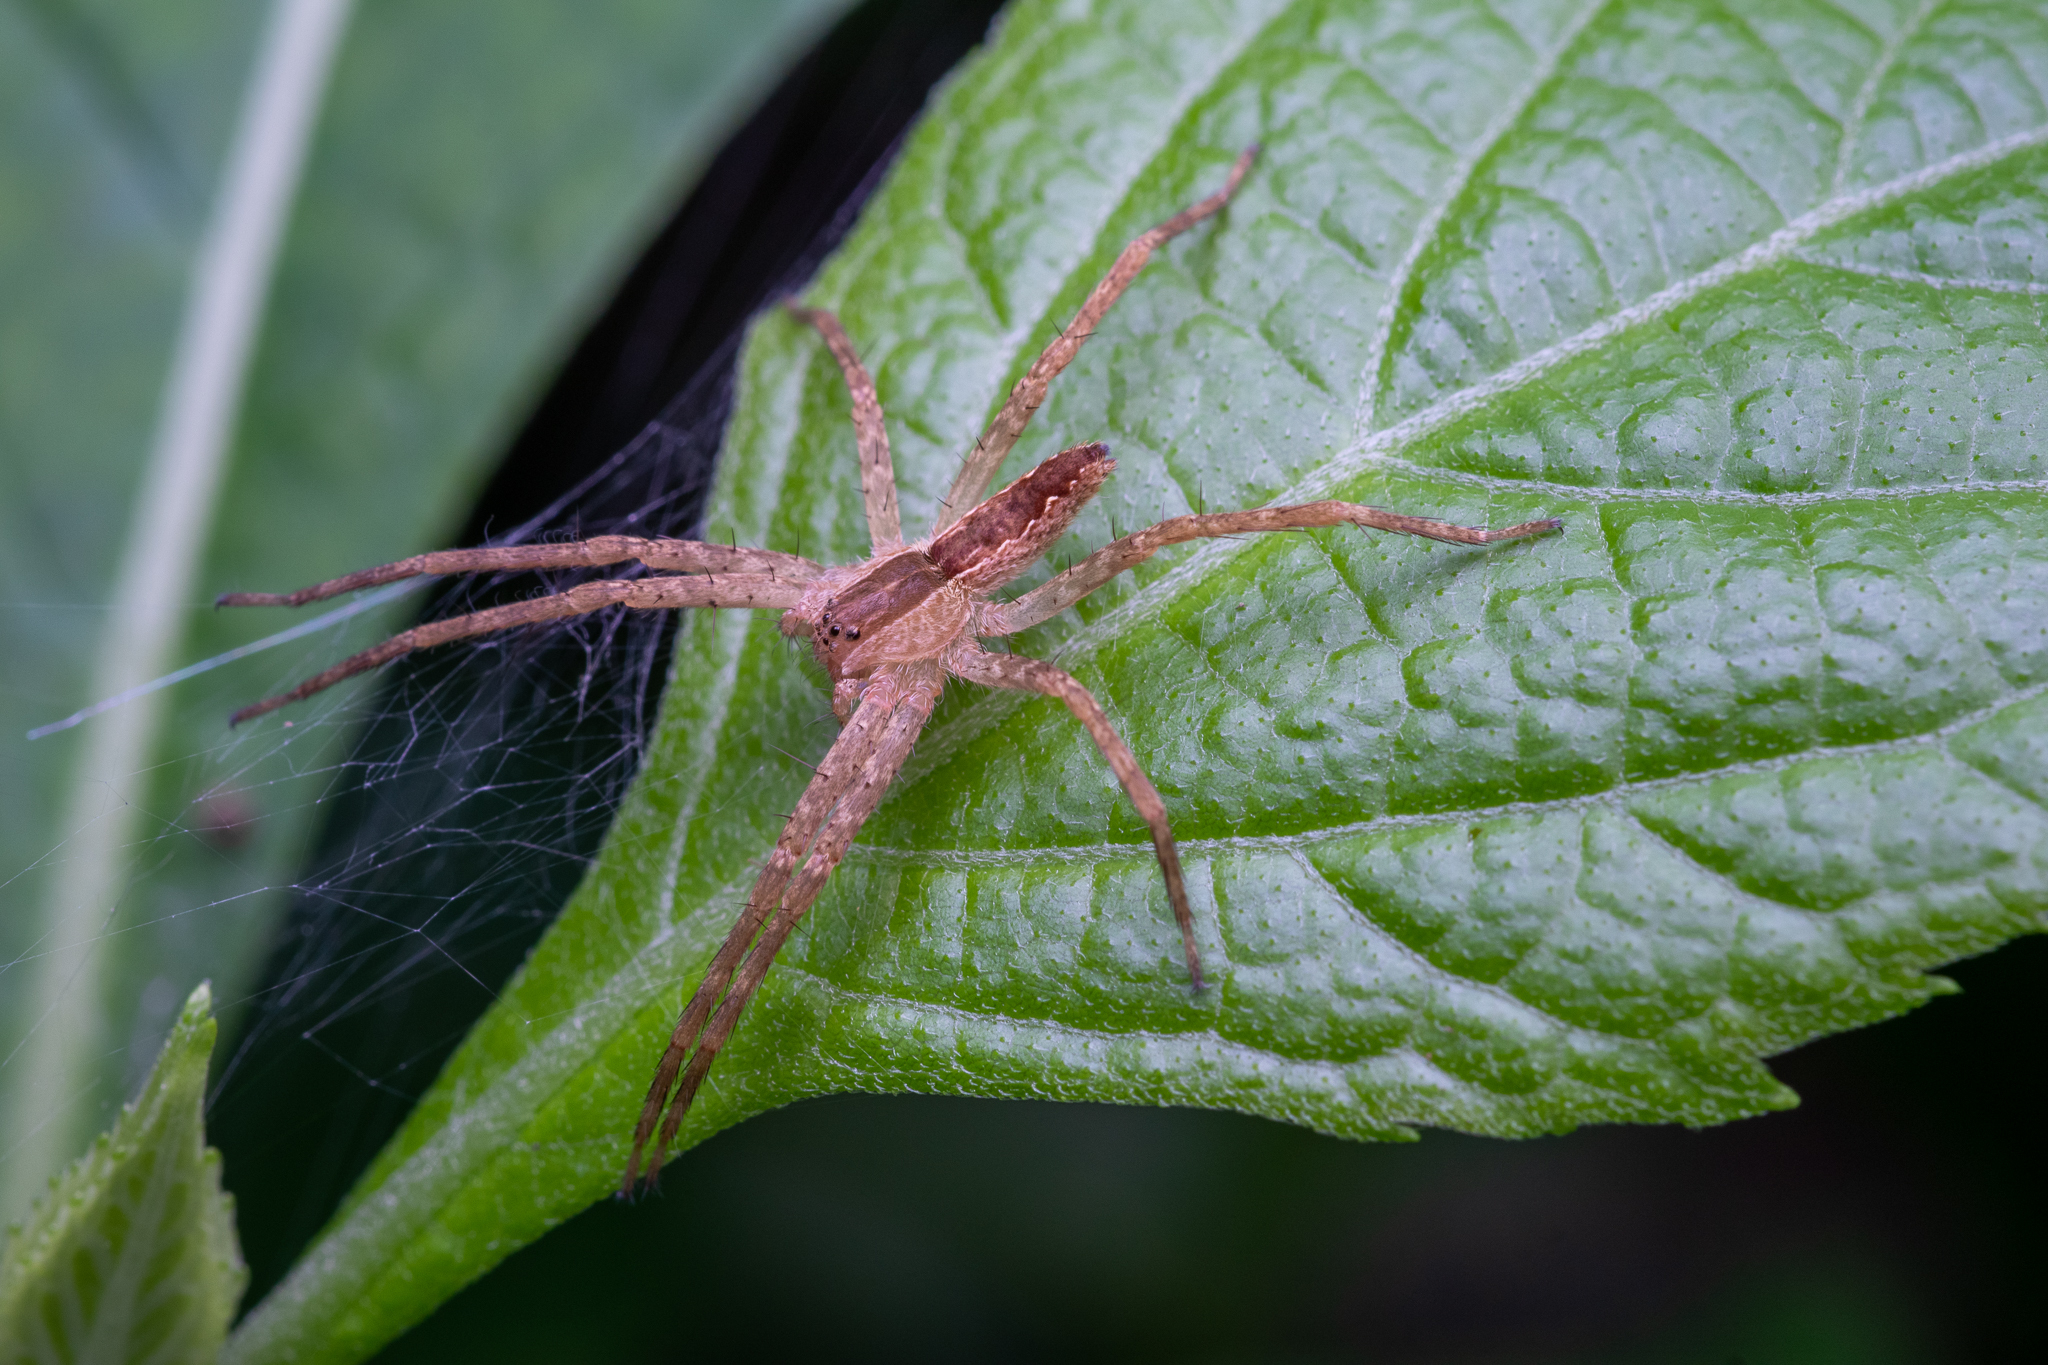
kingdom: Animalia
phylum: Arthropoda
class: Arachnida
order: Araneae
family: Pisauridae
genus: Pisaurina
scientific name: Pisaurina mira
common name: American nursery web spider
